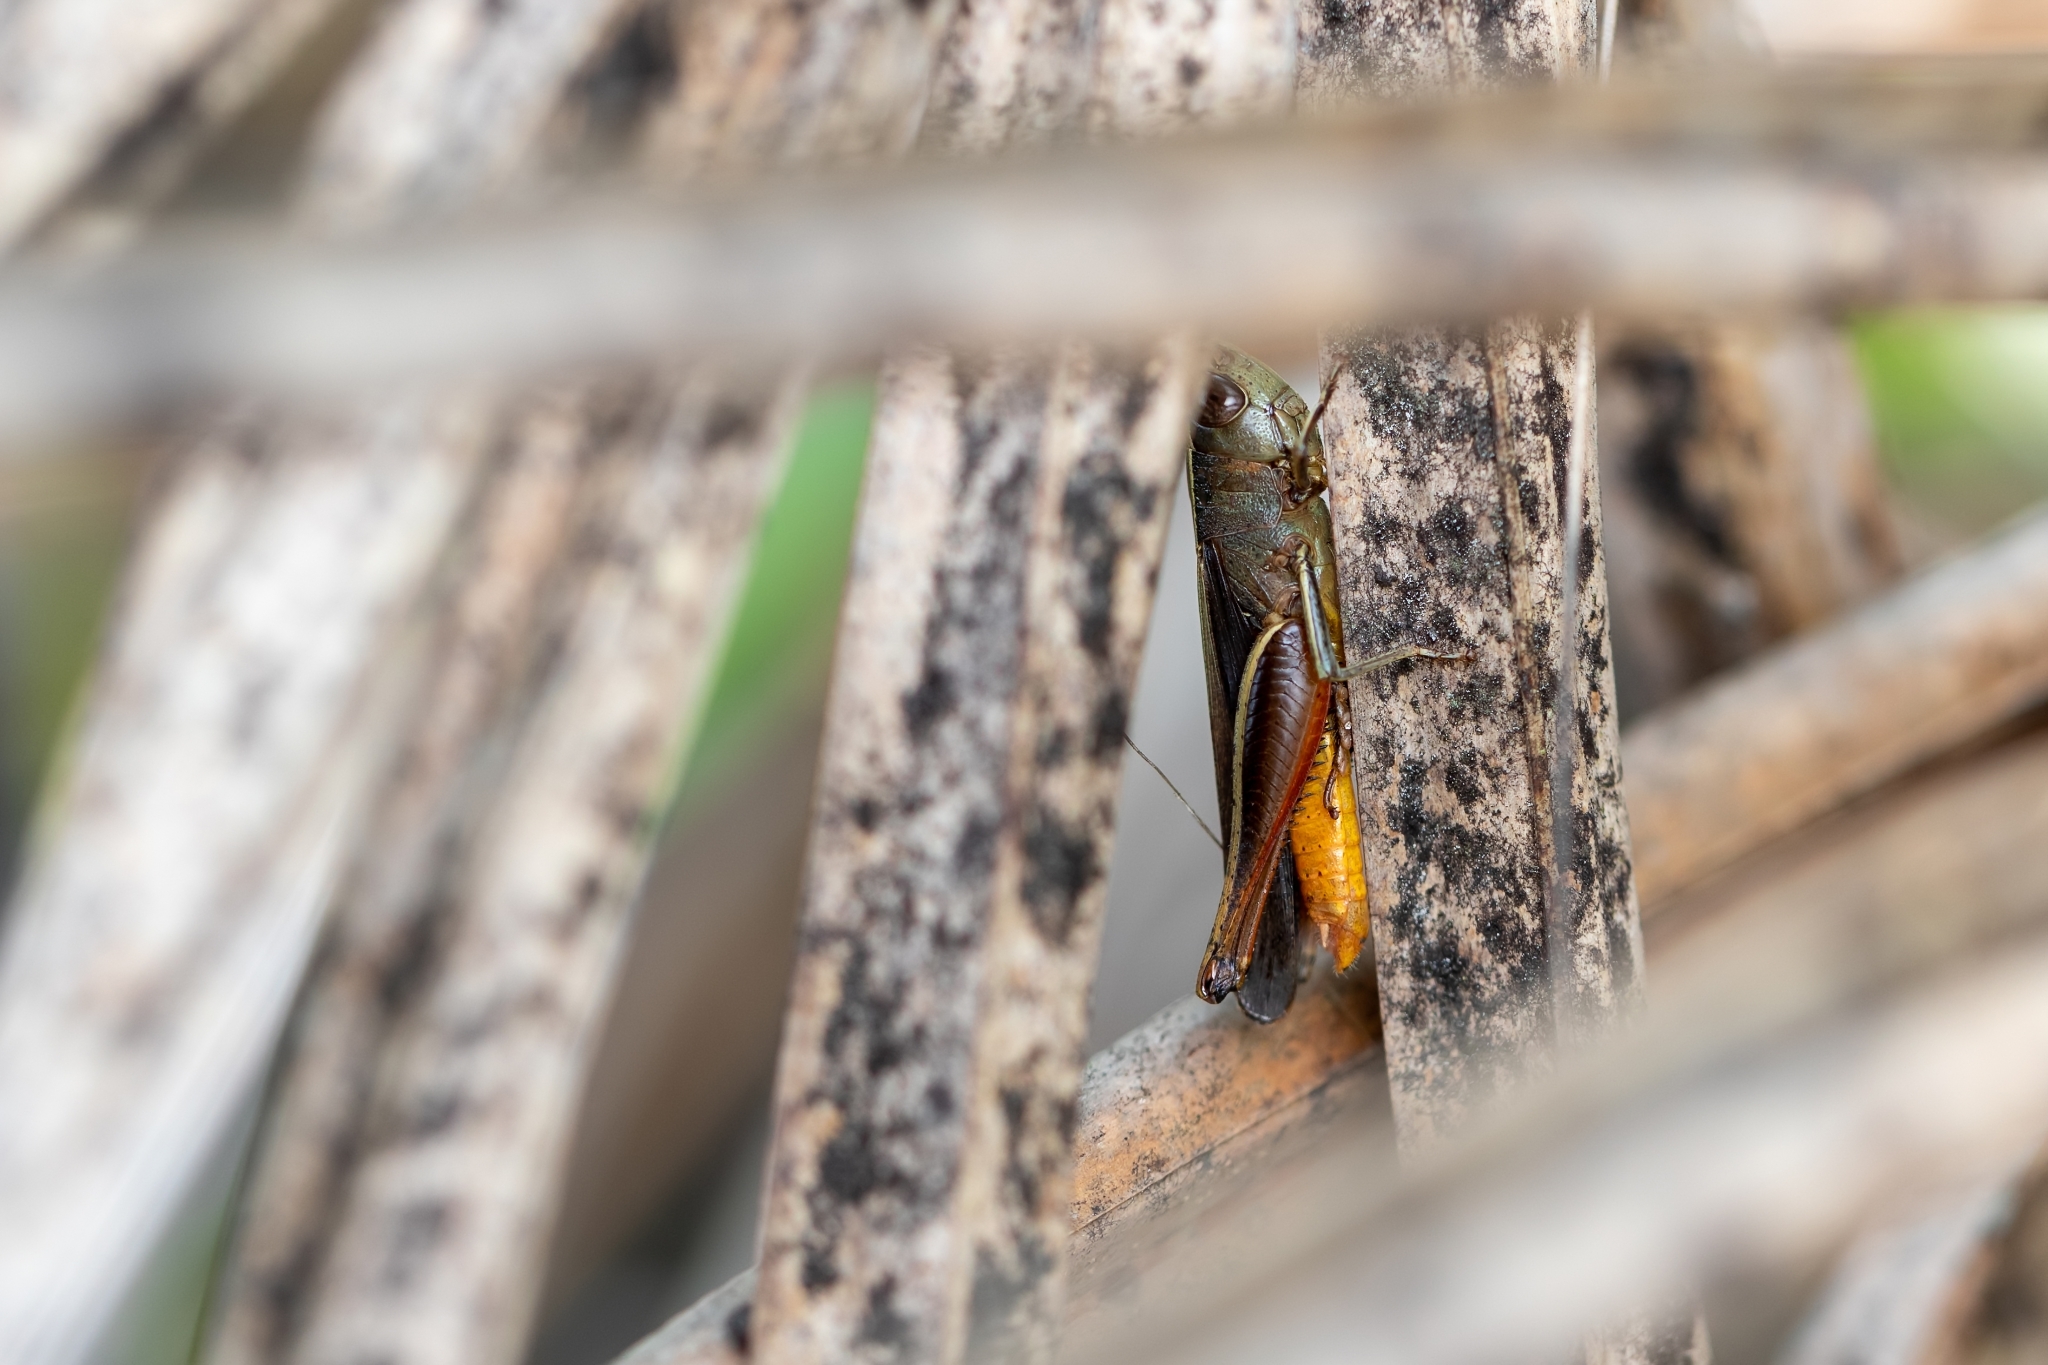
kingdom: Animalia
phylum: Arthropoda
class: Insecta
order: Orthoptera
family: Acrididae
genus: Amblytropidia
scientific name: Amblytropidia mysteca
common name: Brown winter grasshopper
